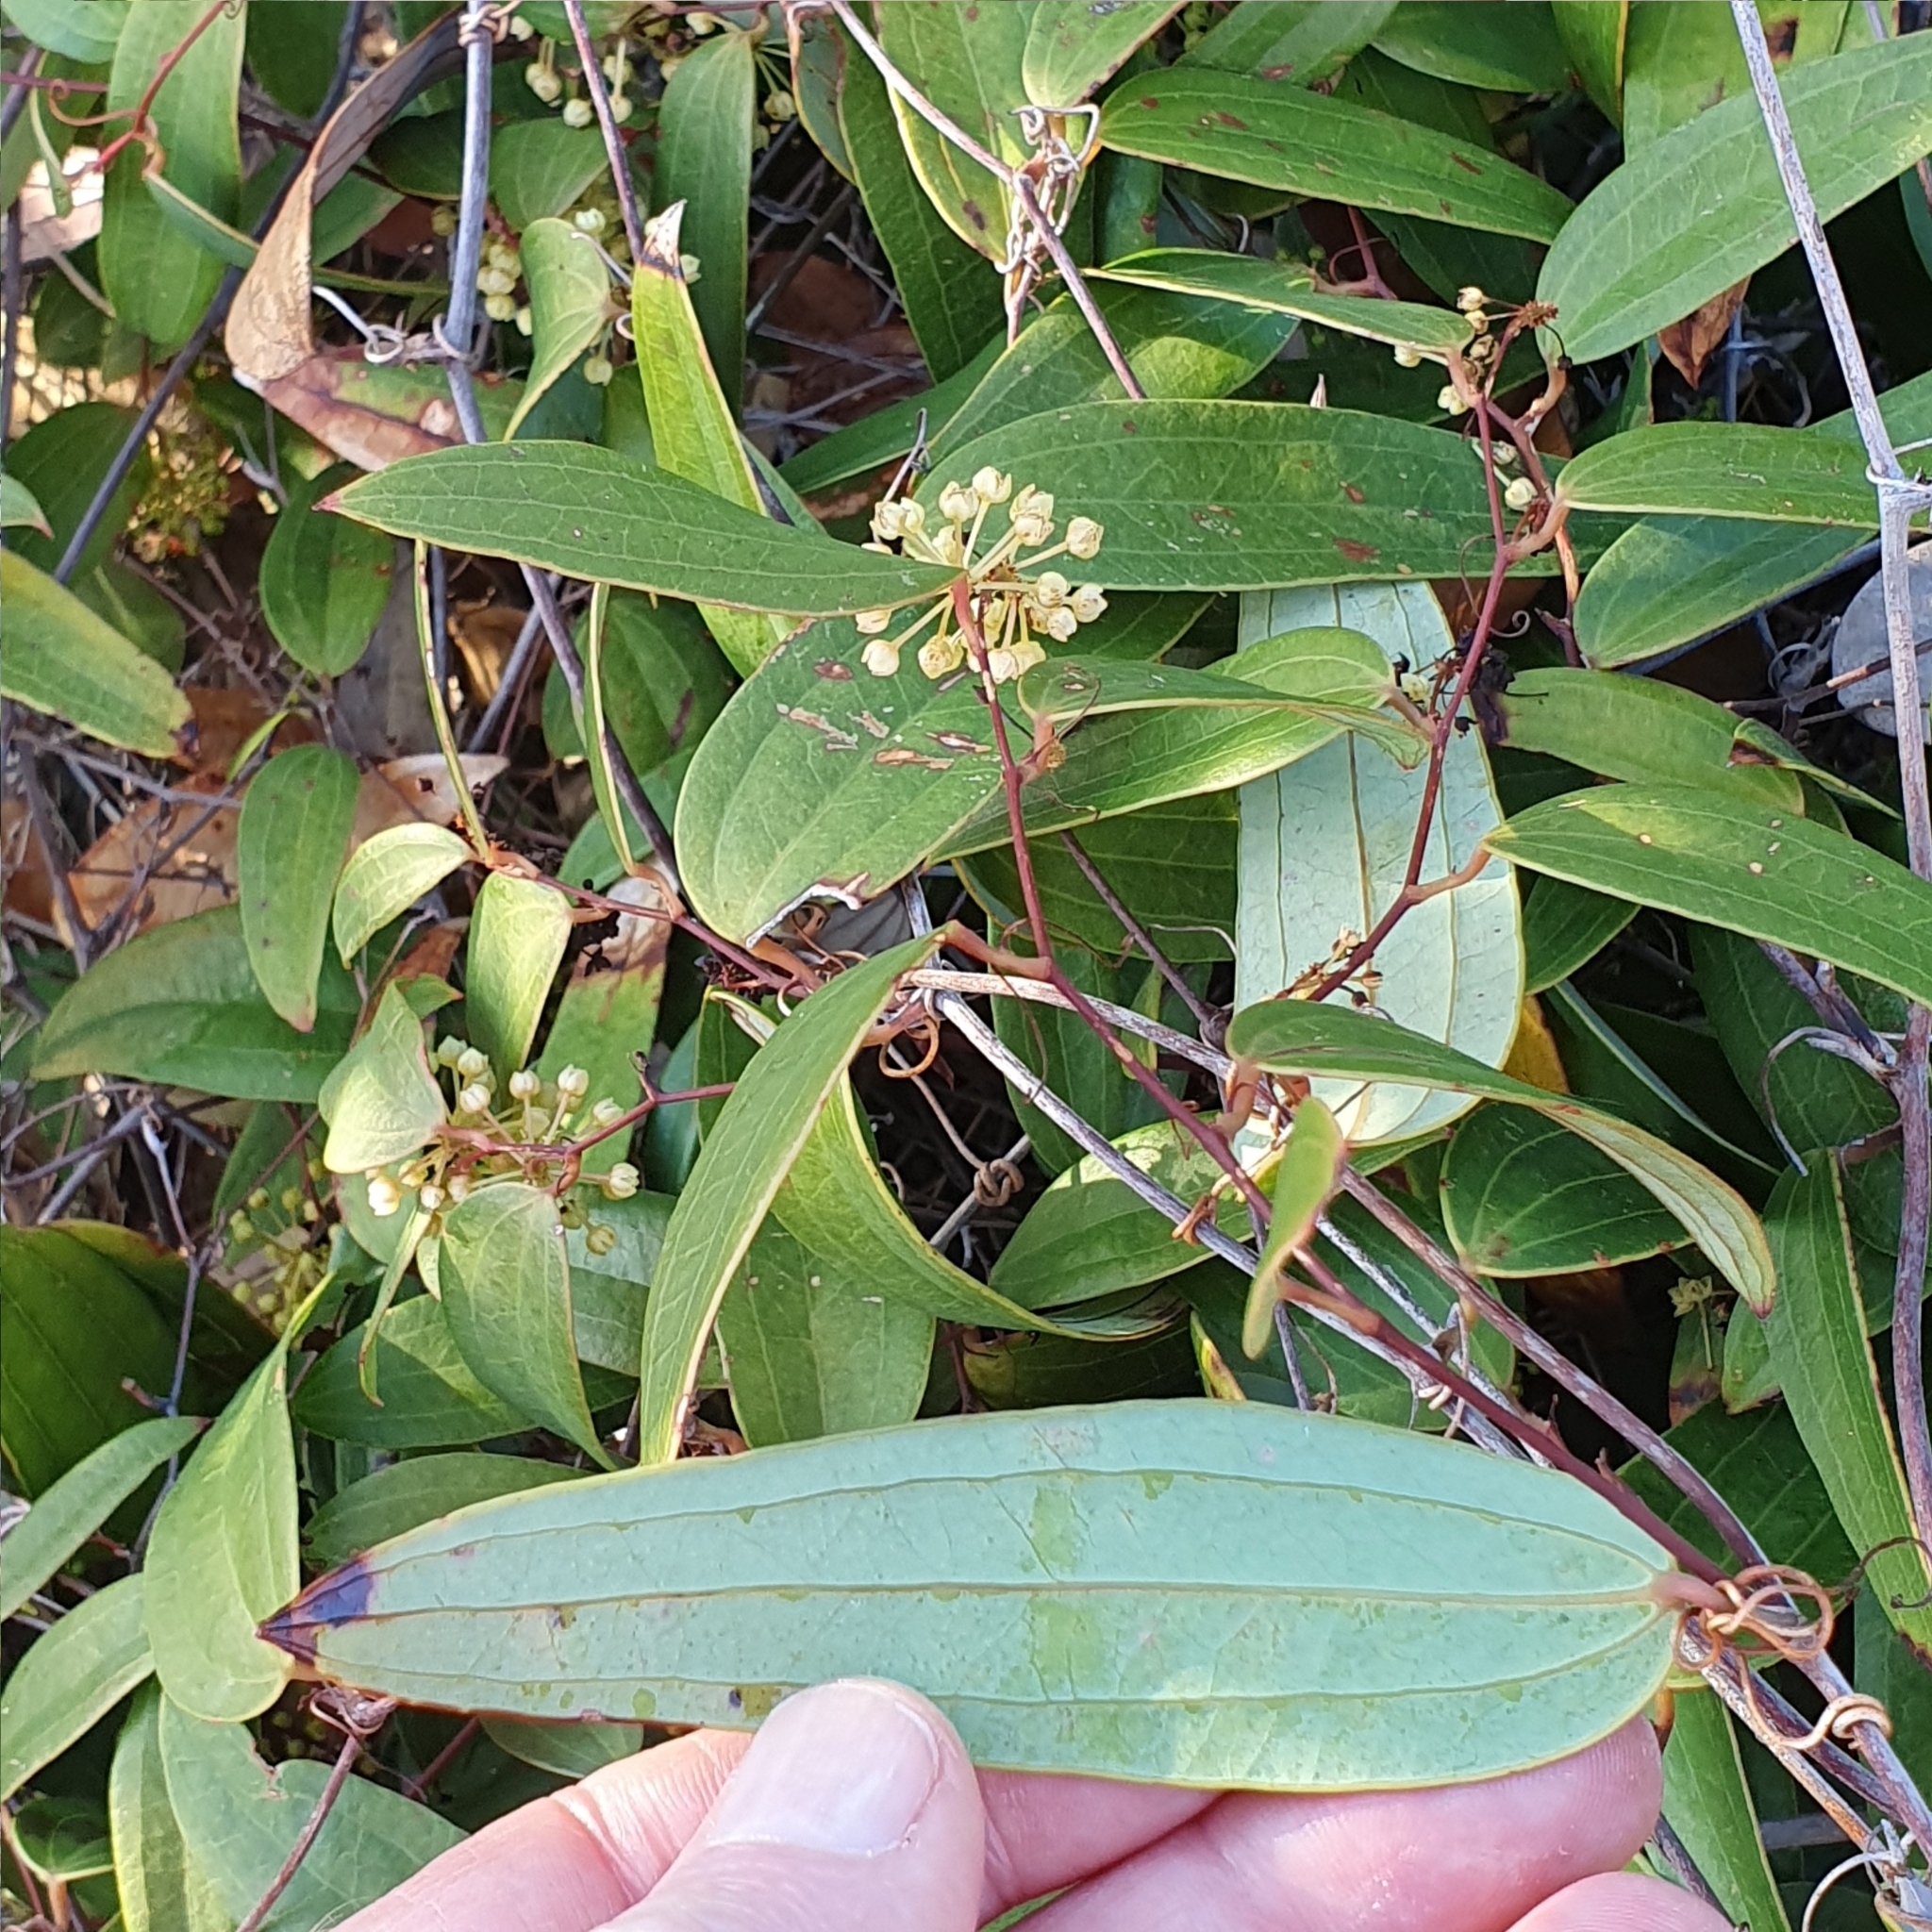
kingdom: Plantae
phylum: Tracheophyta
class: Liliopsida
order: Liliales
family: Smilacaceae
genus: Smilax
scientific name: Smilax glyciphylla
